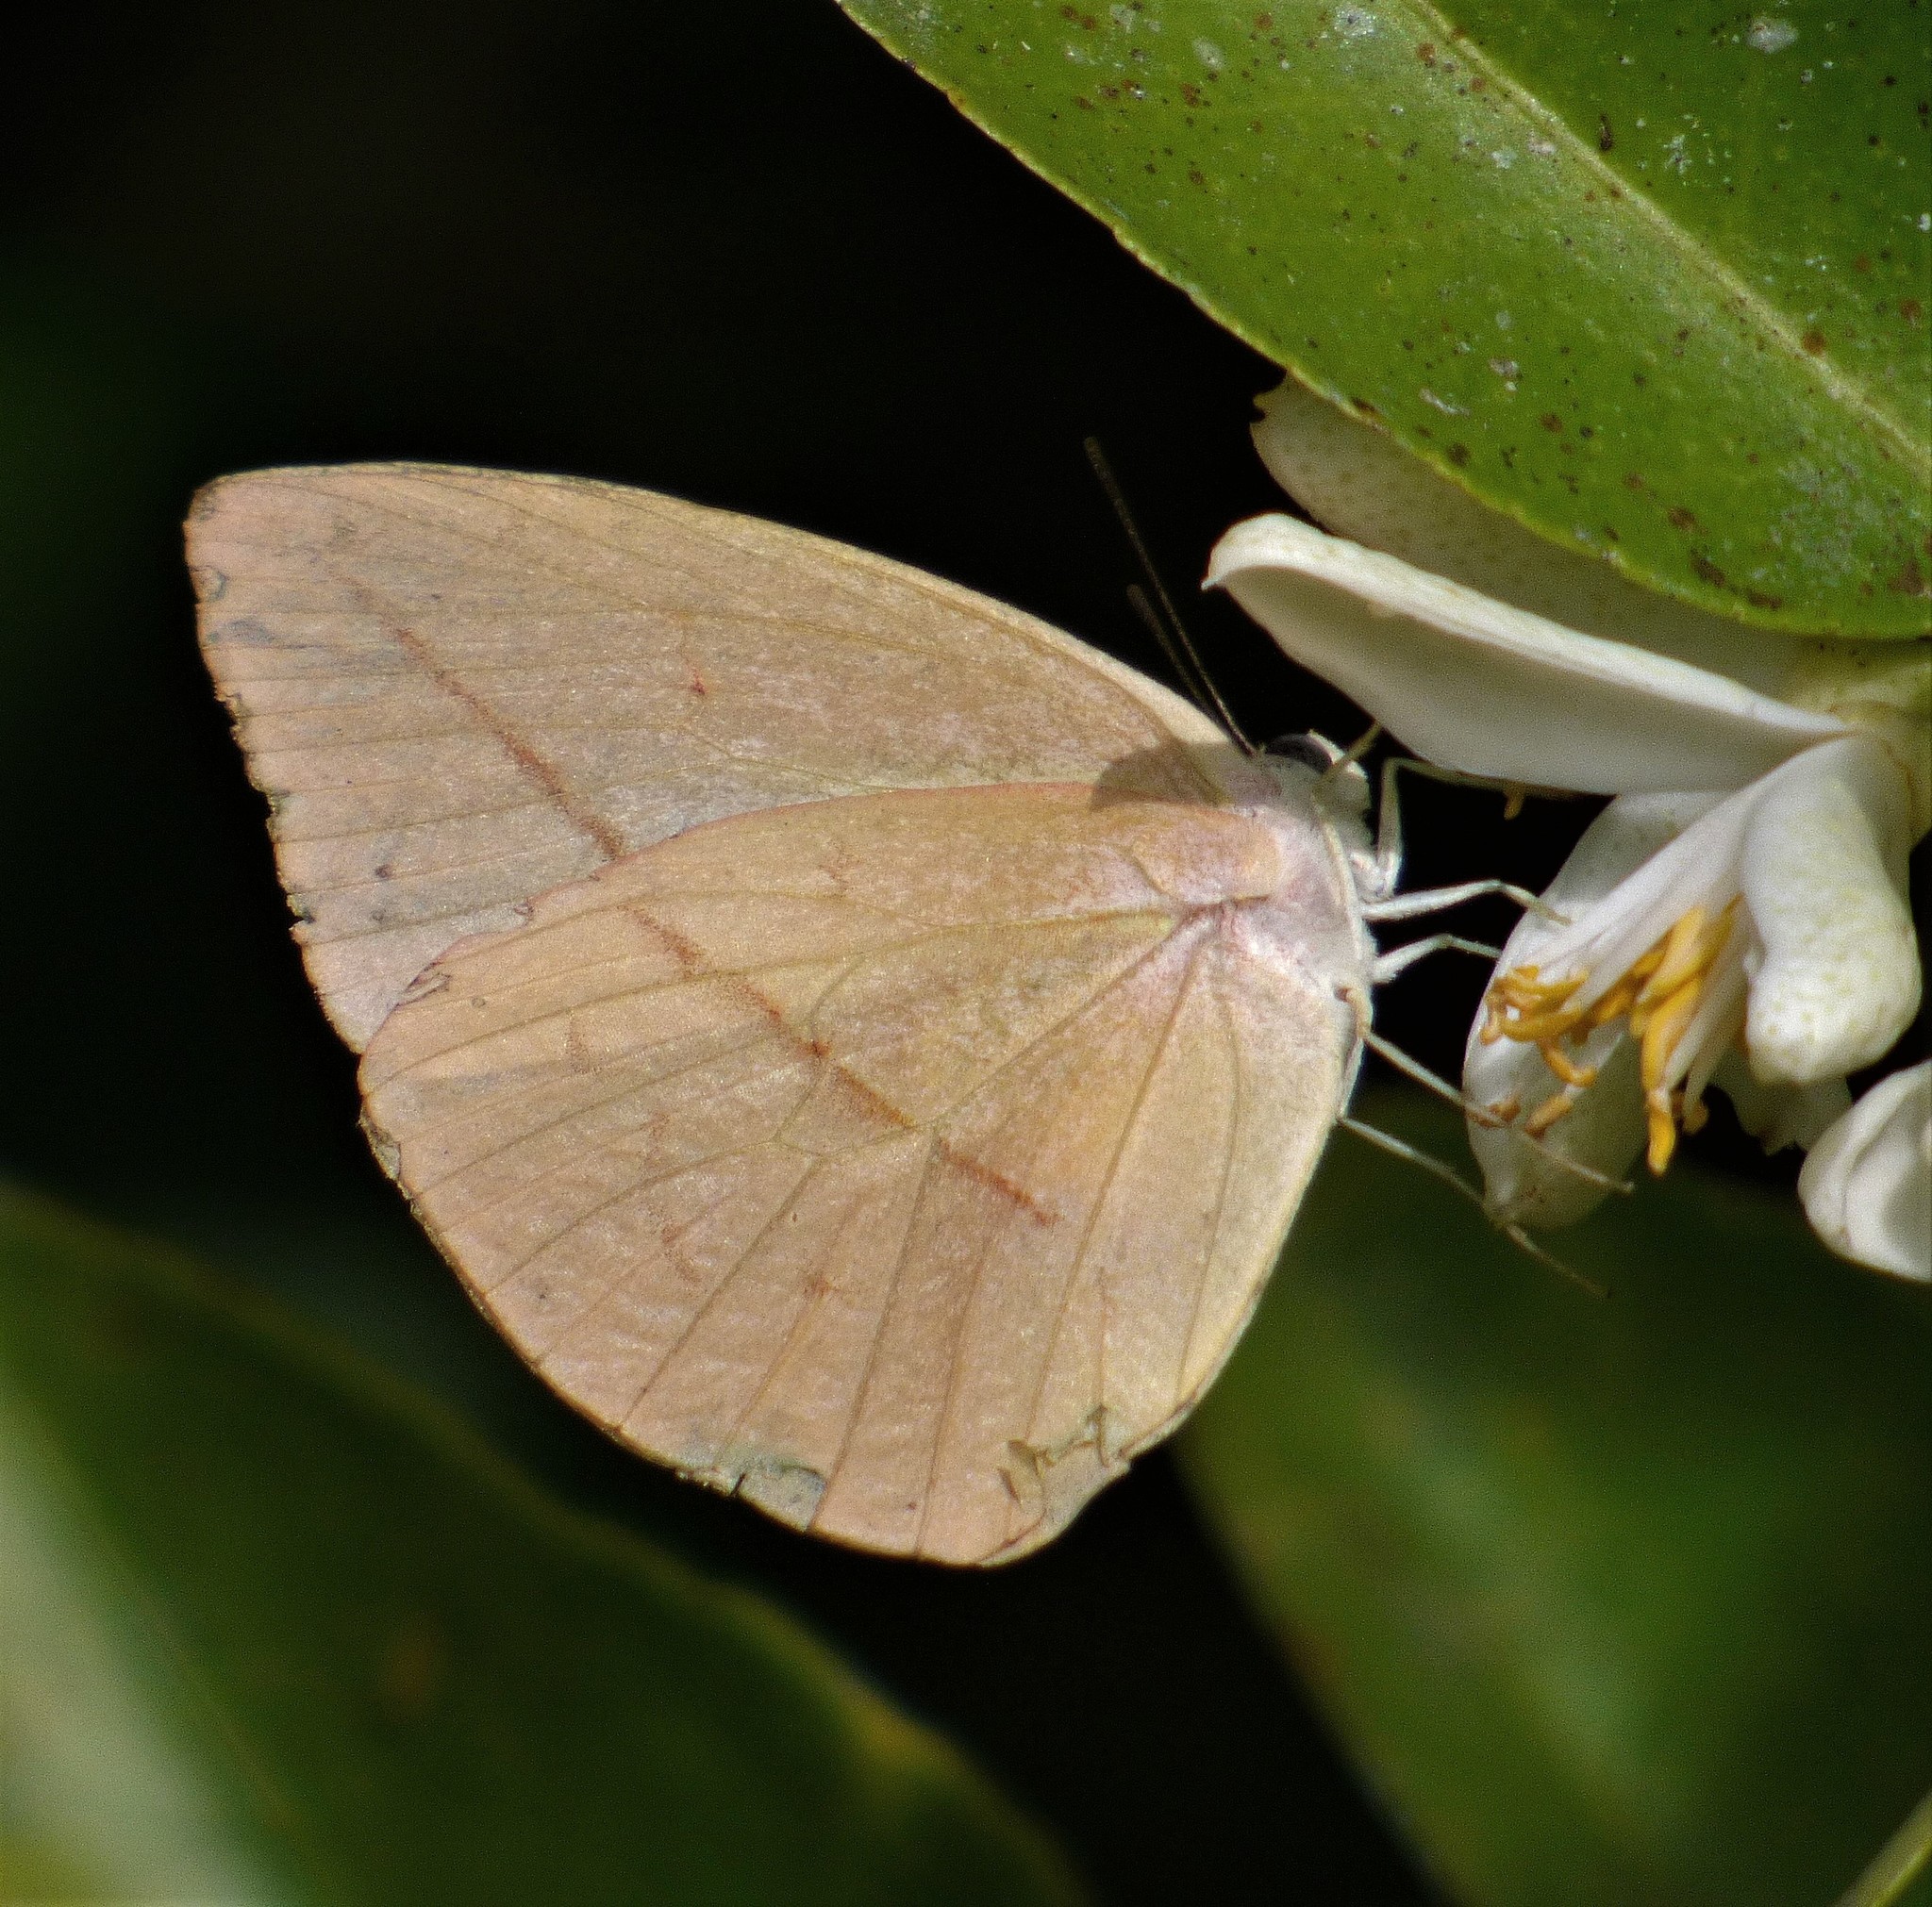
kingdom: Animalia
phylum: Arthropoda
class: Insecta
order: Lepidoptera
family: Pieridae
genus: Rhabdodryas
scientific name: Rhabdodryas trite
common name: Straight-lined sulphur
